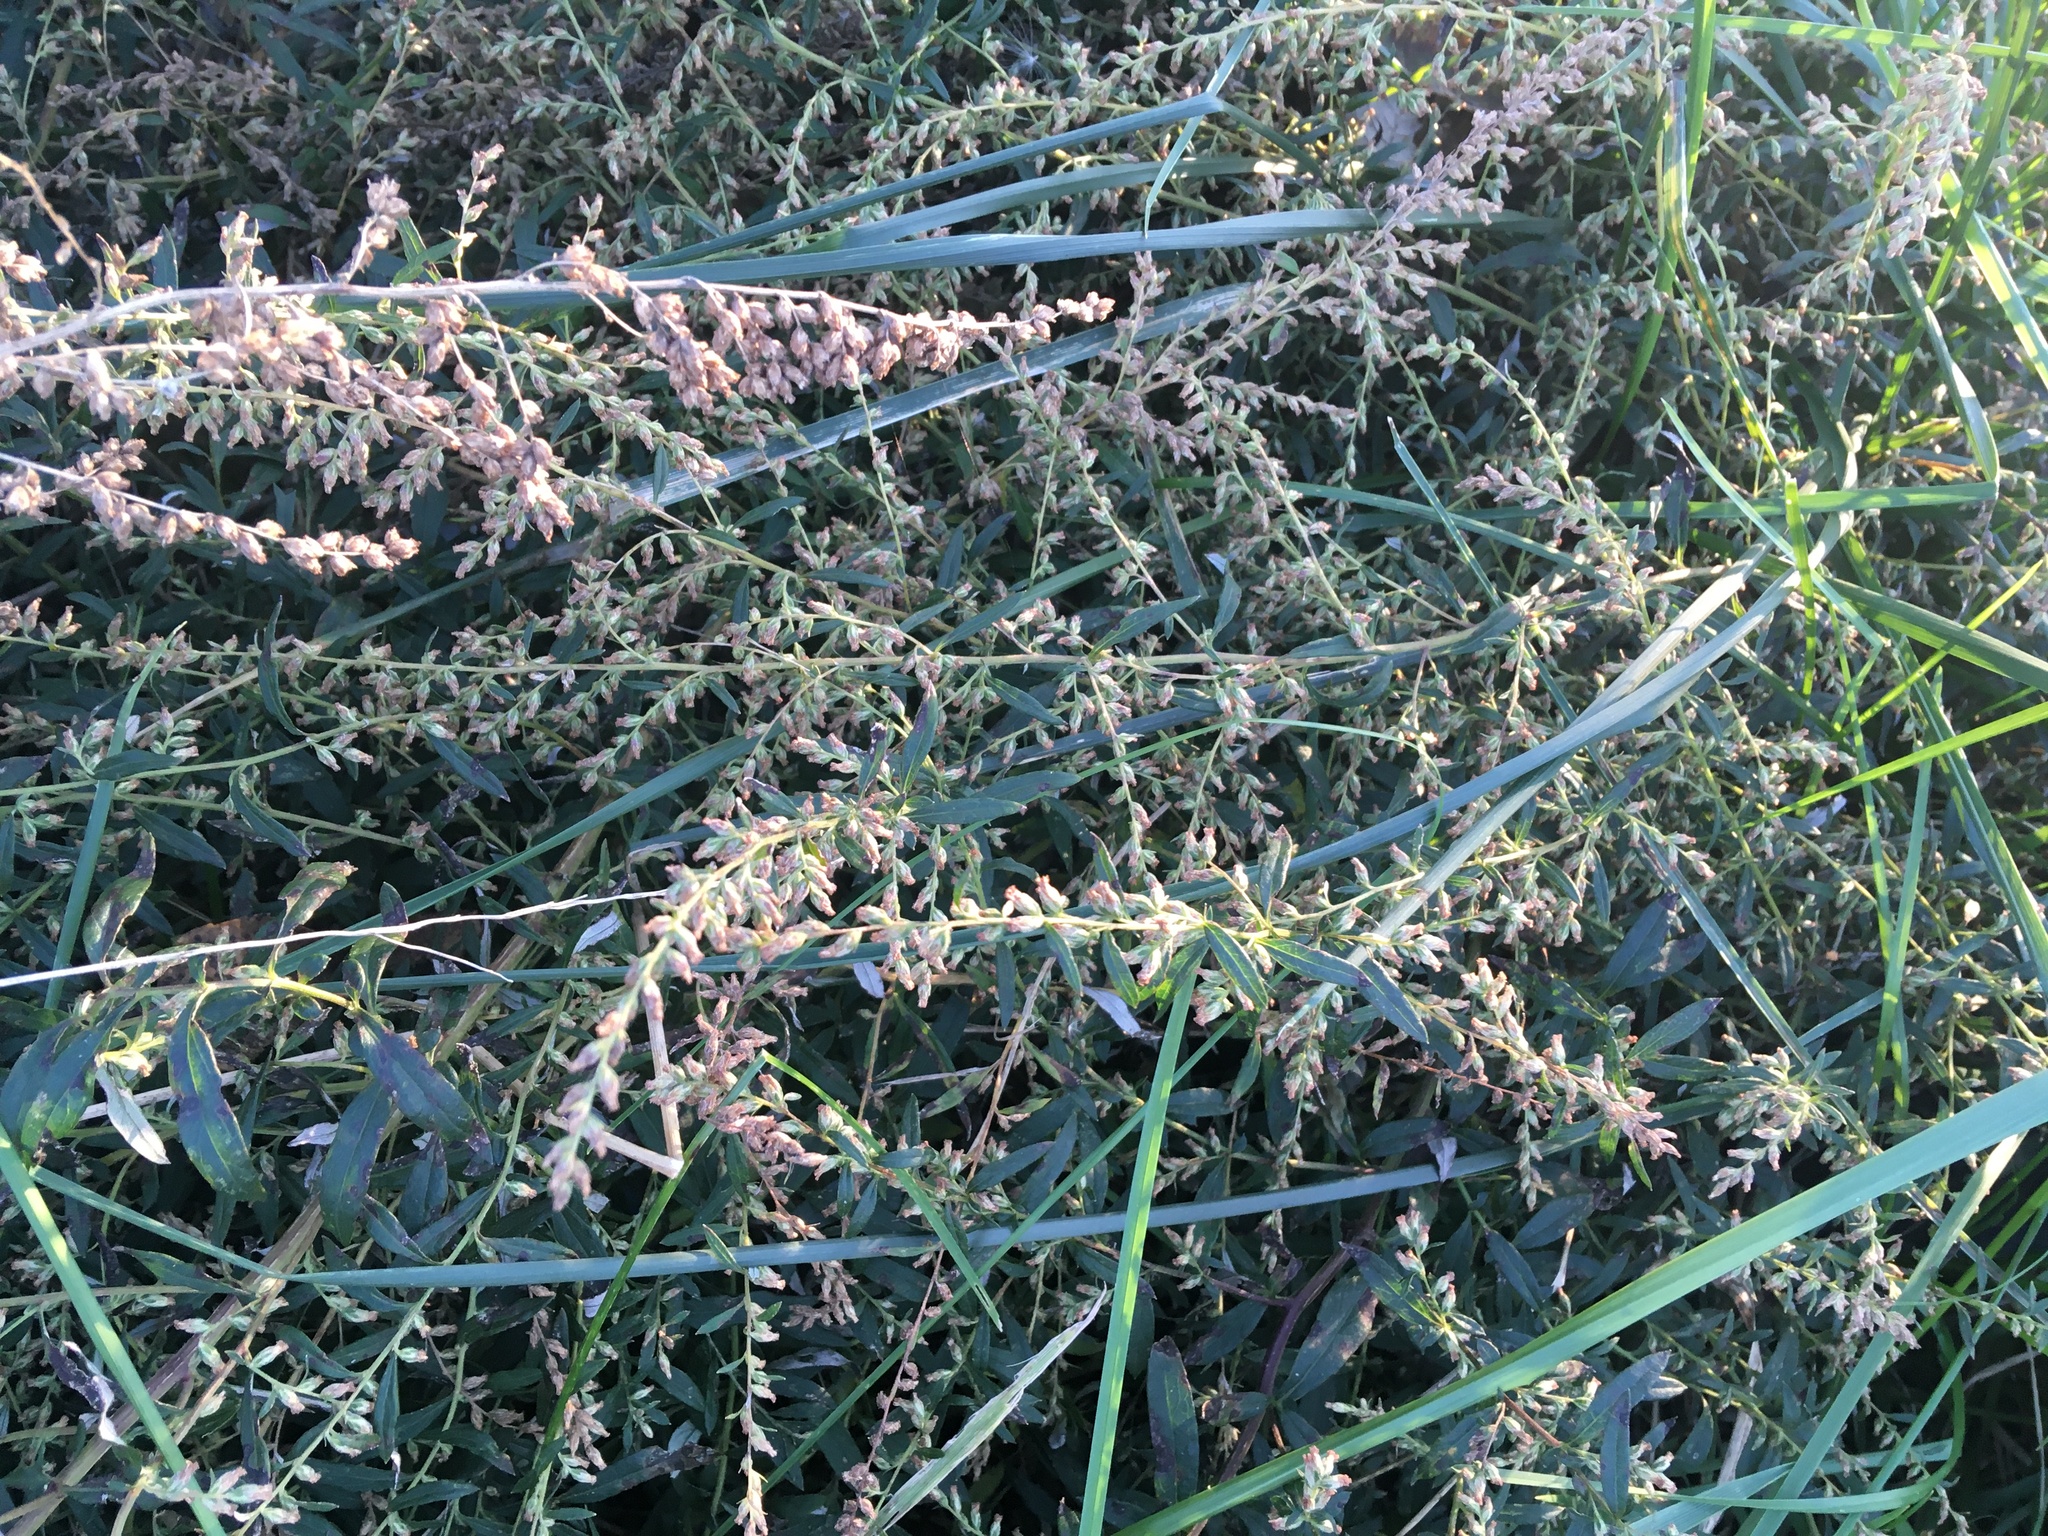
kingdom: Plantae
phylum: Tracheophyta
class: Magnoliopsida
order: Asterales
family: Asteraceae
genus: Artemisia
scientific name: Artemisia vulgaris
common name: Mugwort
